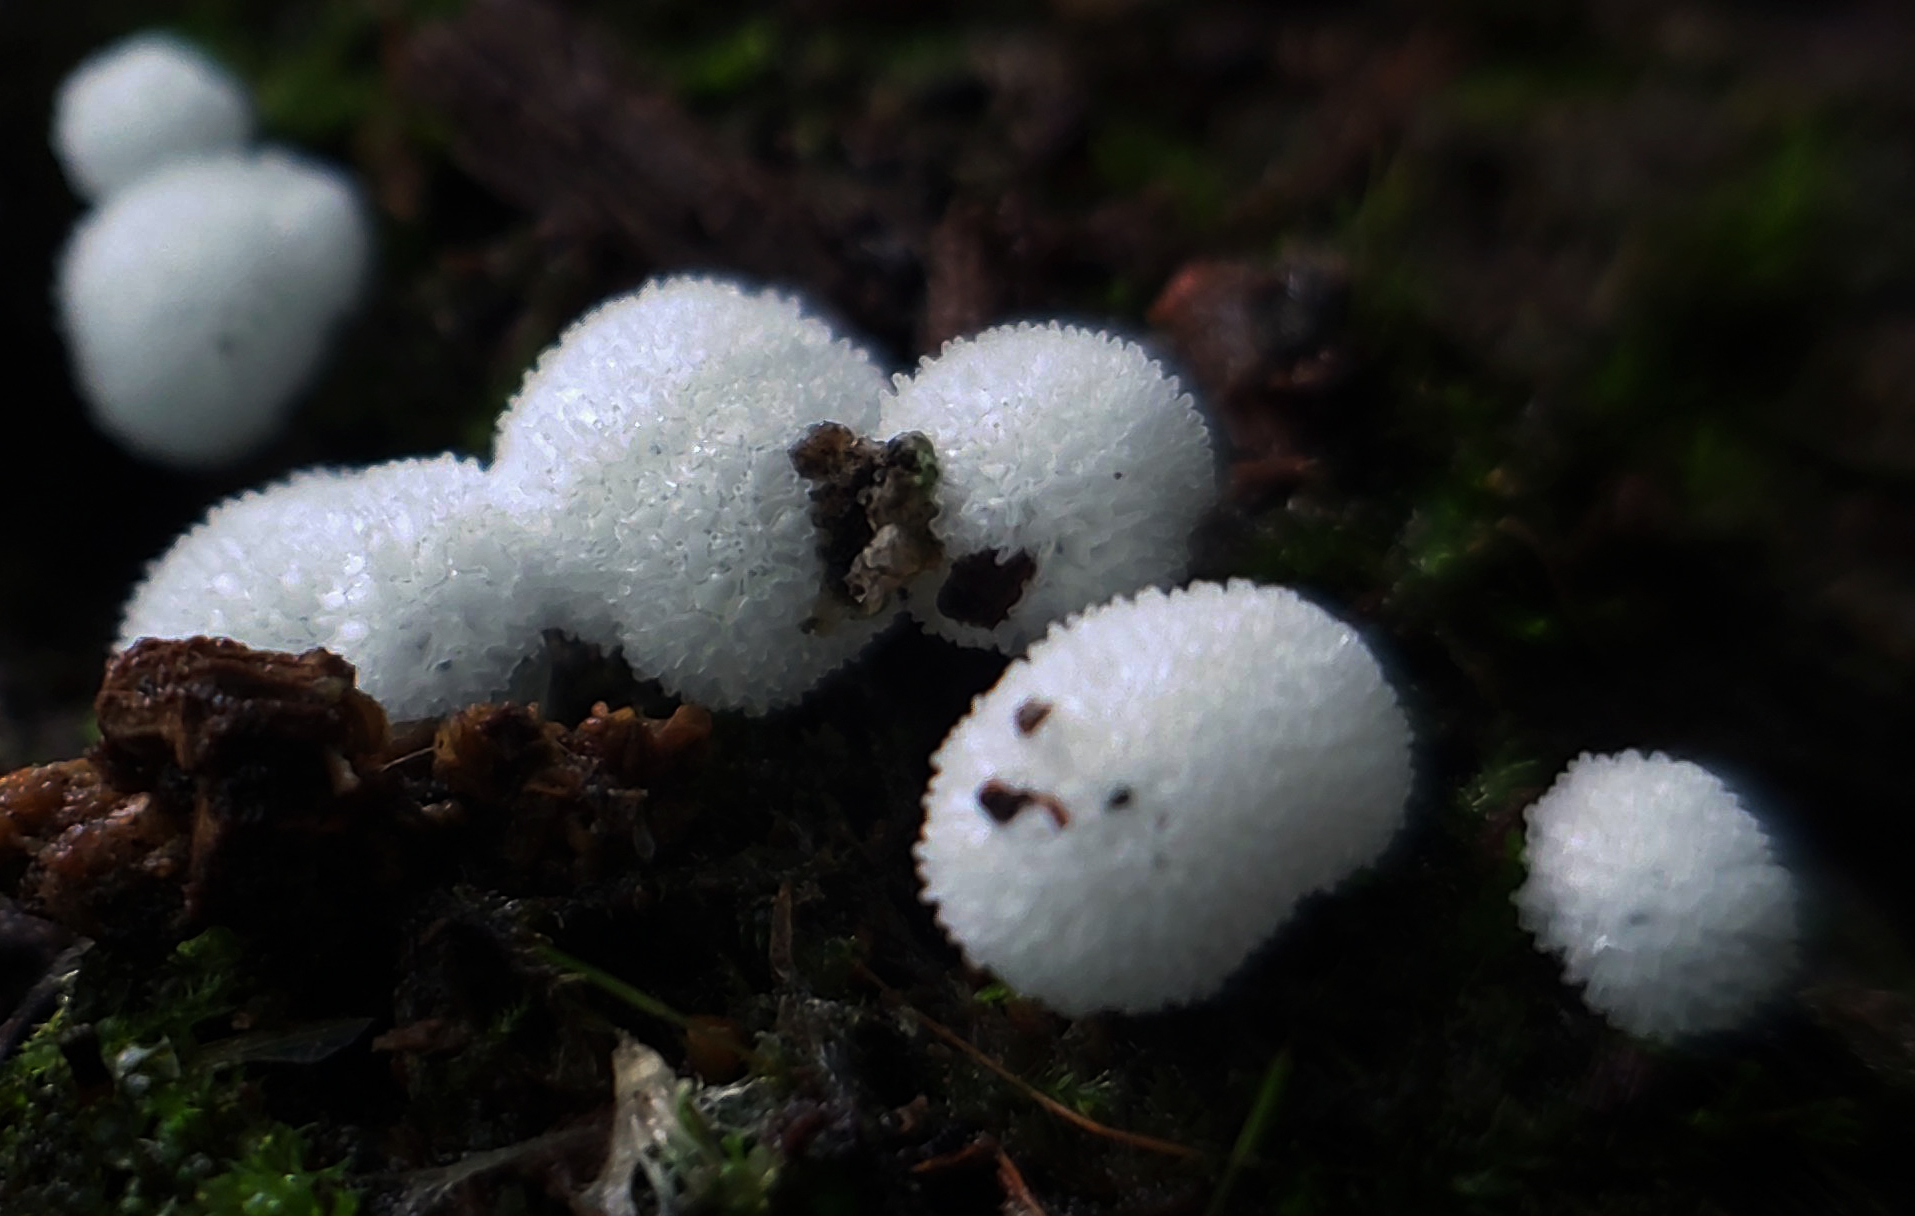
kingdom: Protozoa
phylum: Mycetozoa
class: Protosteliomycetes
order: Ceratiomyxales
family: Ceratiomyxaceae
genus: Ceratiomyxa
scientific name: Ceratiomyxa fruticulosa
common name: Honeycomb coral slime mold
